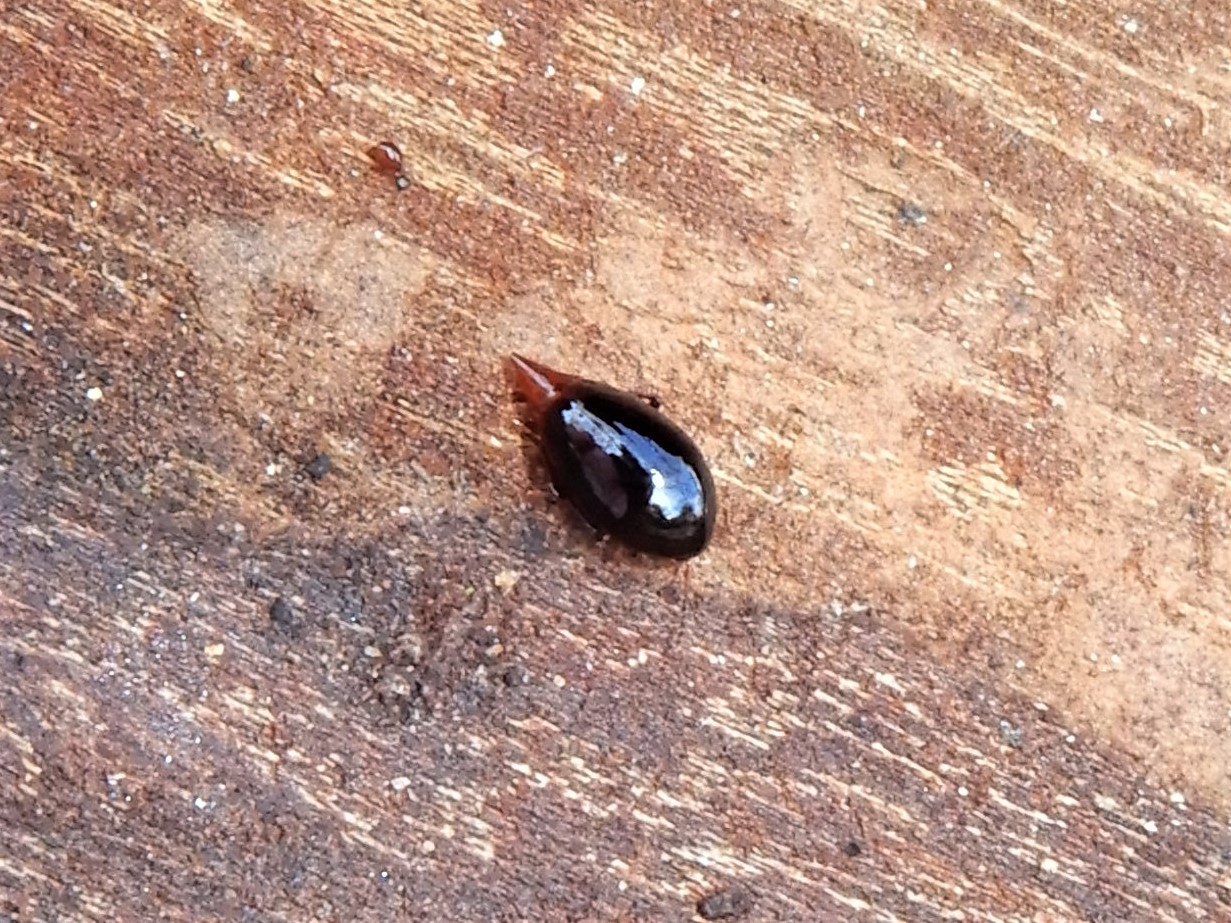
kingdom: Animalia
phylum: Arthropoda
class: Insecta
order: Coleoptera
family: Staphylinidae
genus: Brachynopus
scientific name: Brachynopus scutellaris
